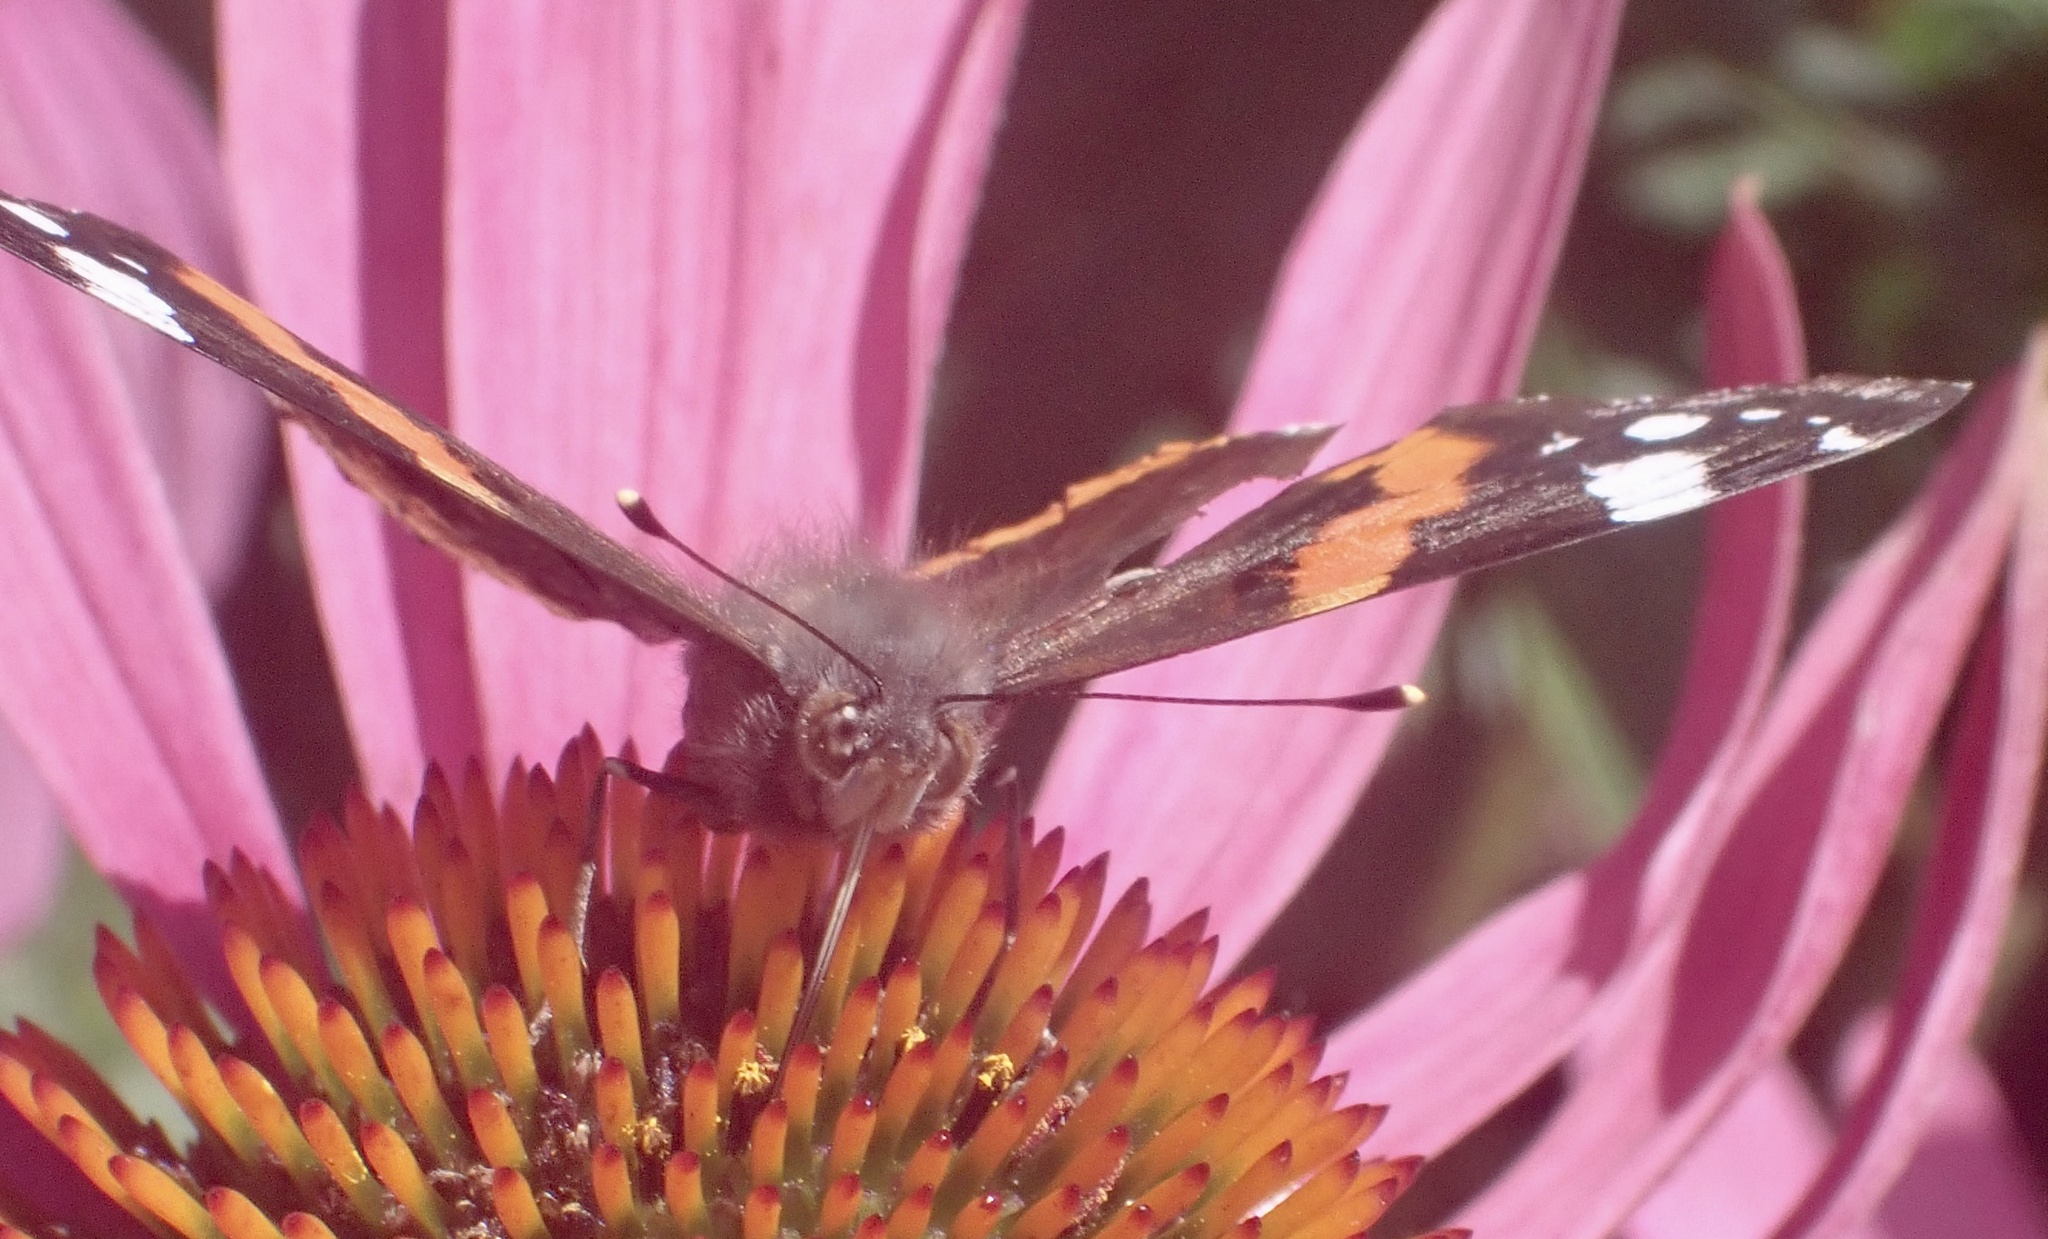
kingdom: Animalia
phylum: Arthropoda
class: Insecta
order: Lepidoptera
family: Nymphalidae
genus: Vanessa
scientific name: Vanessa atalanta
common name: Red admiral
